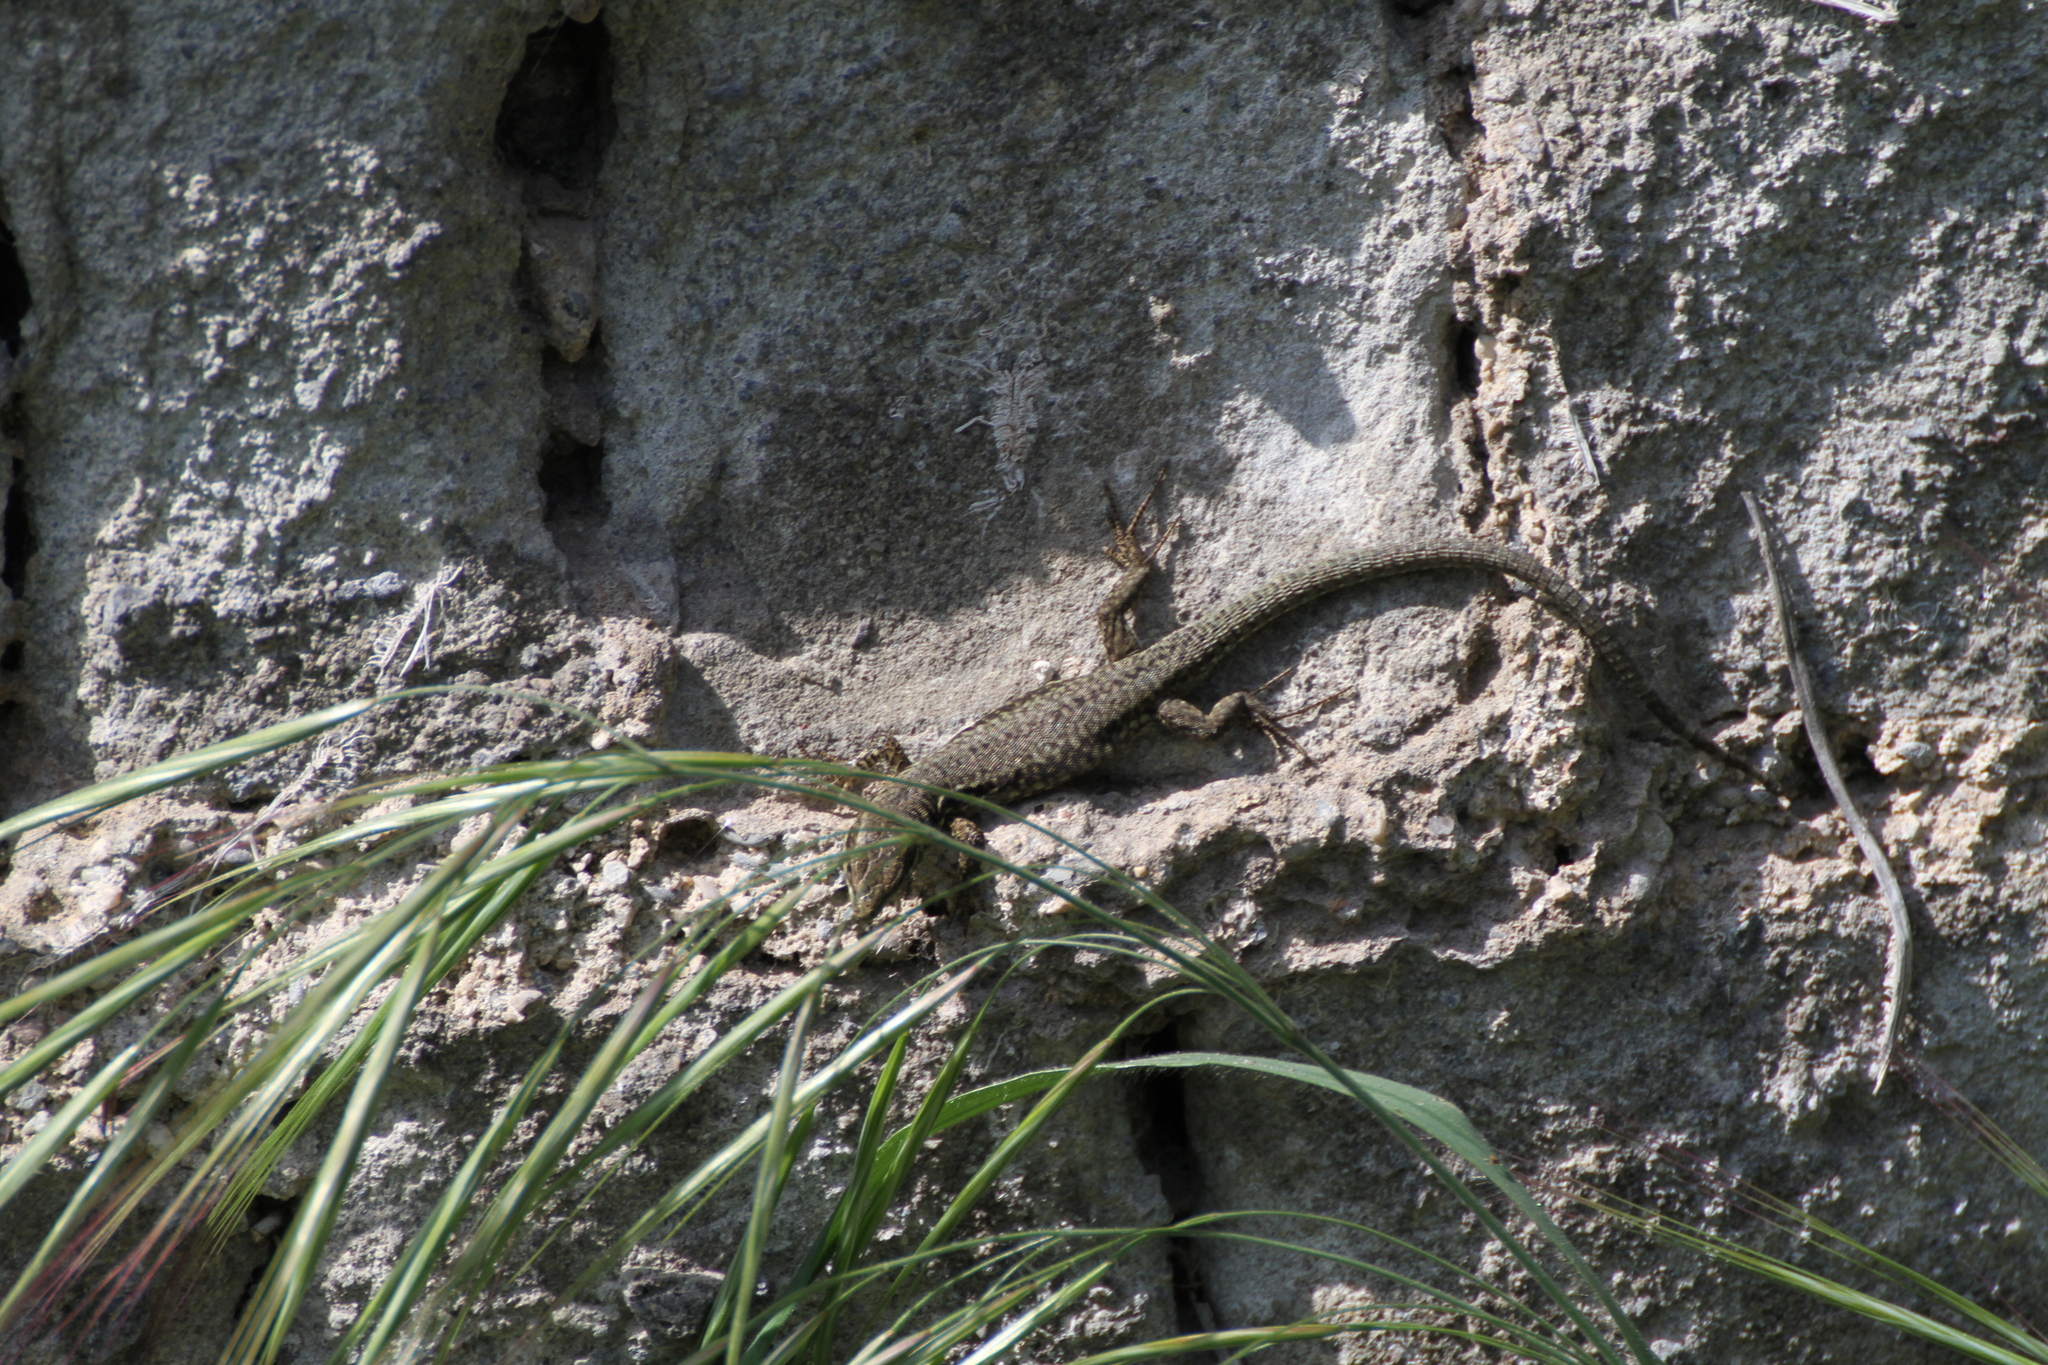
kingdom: Animalia
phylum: Chordata
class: Squamata
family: Lacertidae
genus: Podarcis
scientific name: Podarcis muralis
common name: Common wall lizard
